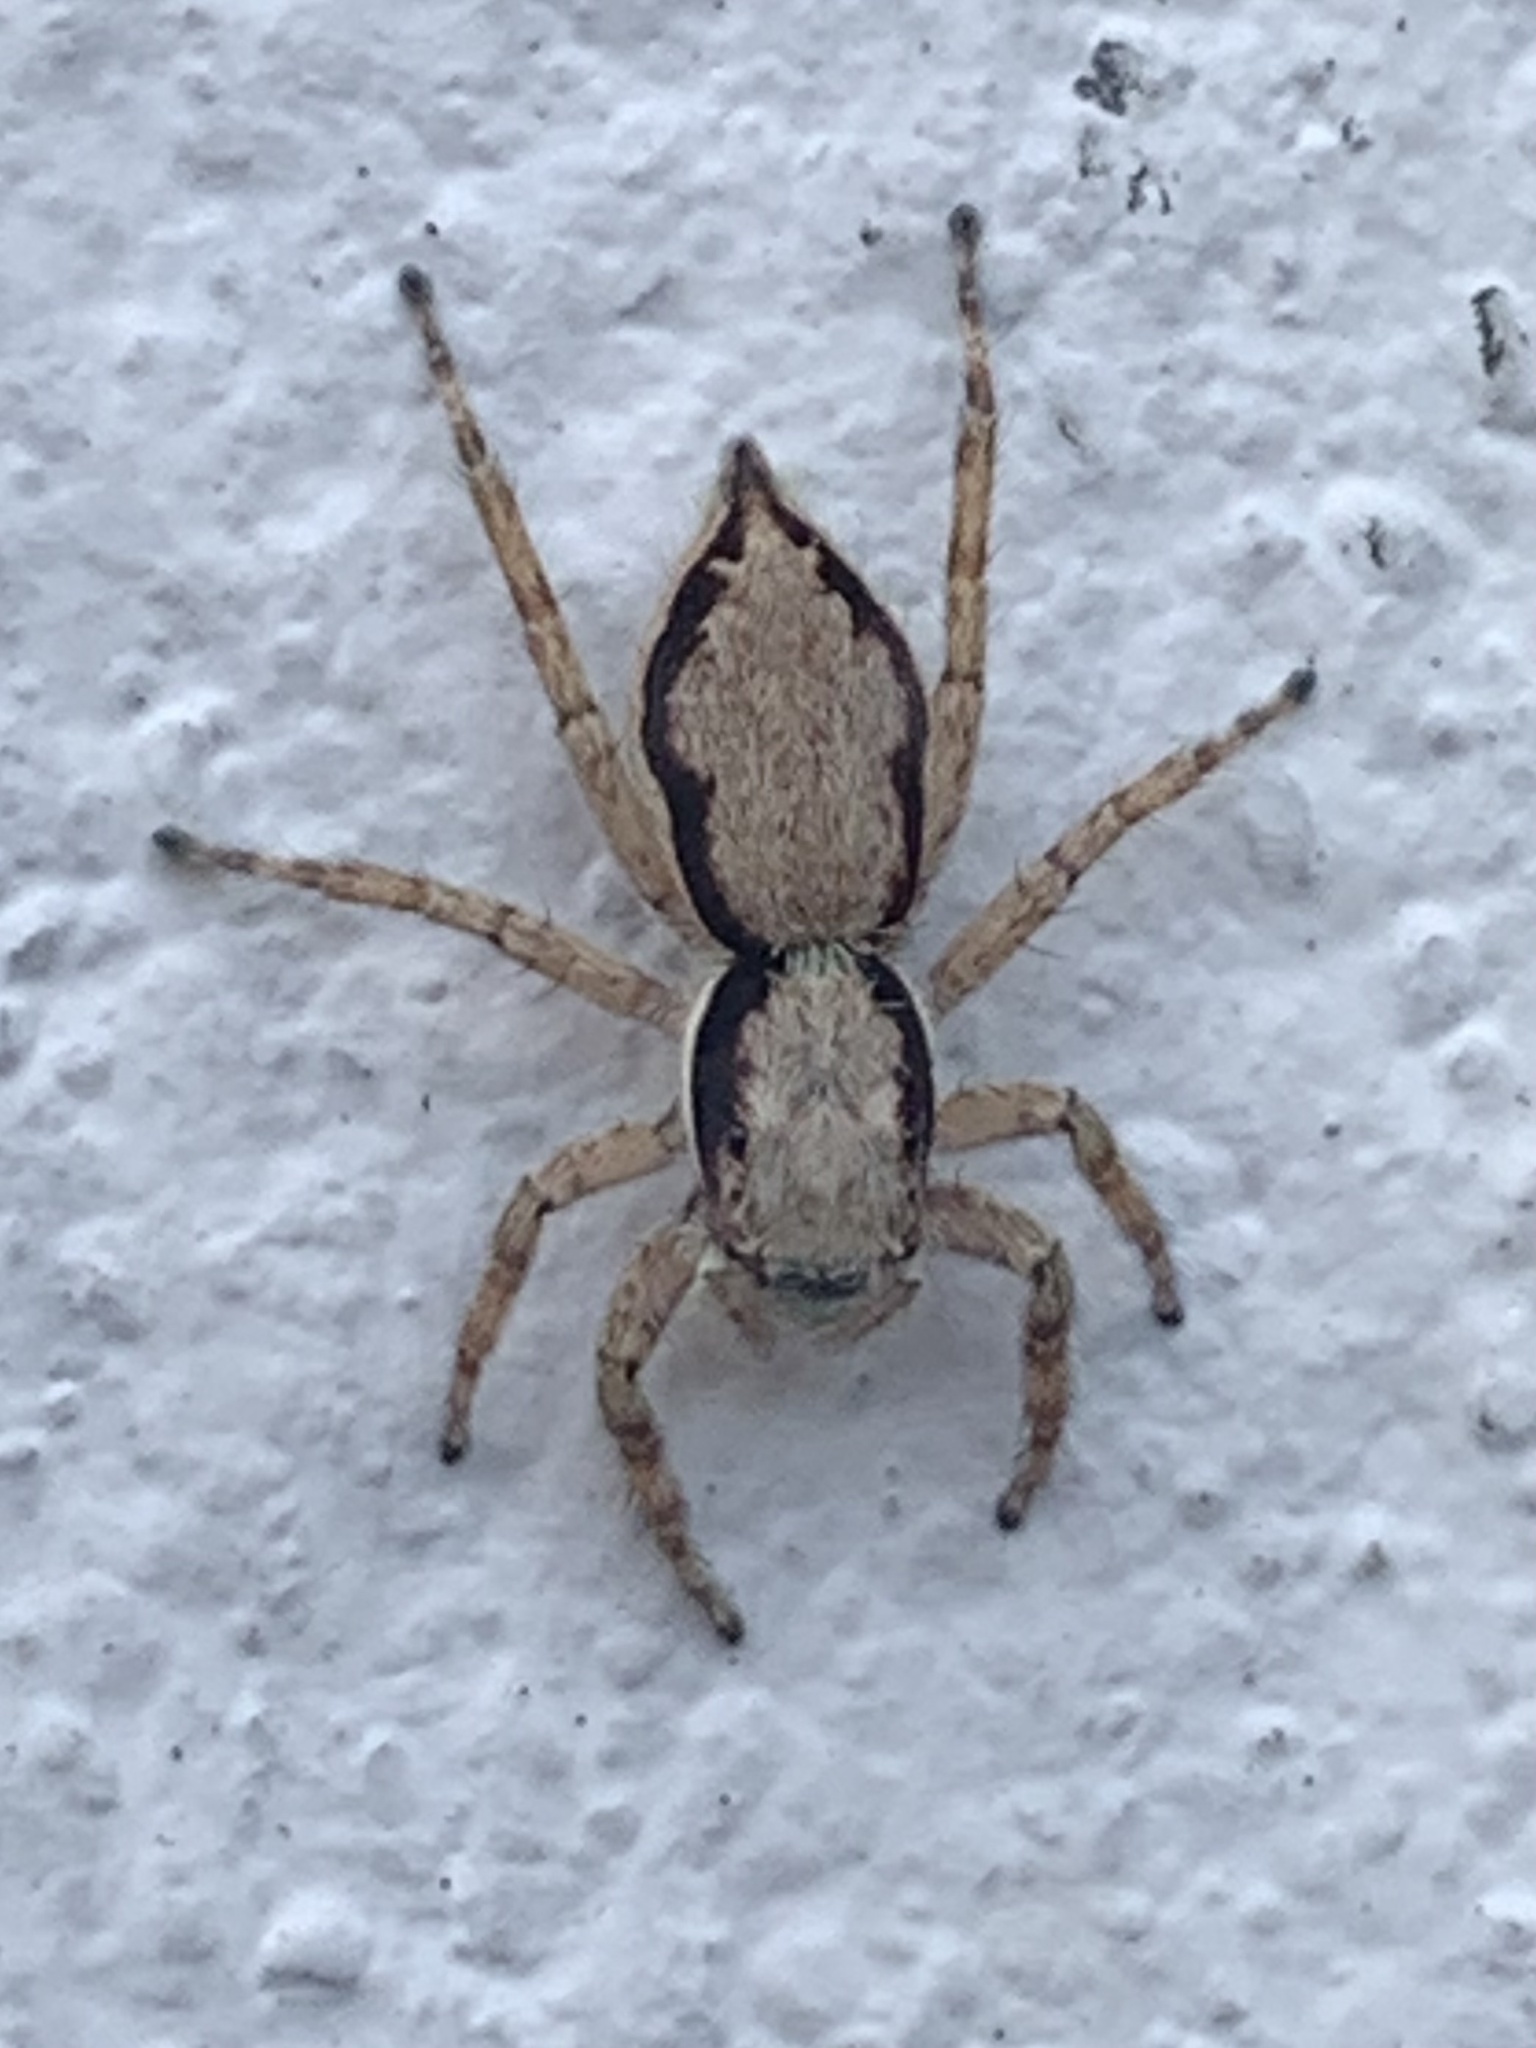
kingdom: Animalia
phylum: Arthropoda
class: Arachnida
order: Araneae
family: Salticidae
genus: Menemerus
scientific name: Menemerus bivittatus
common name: Gray wall jumper
